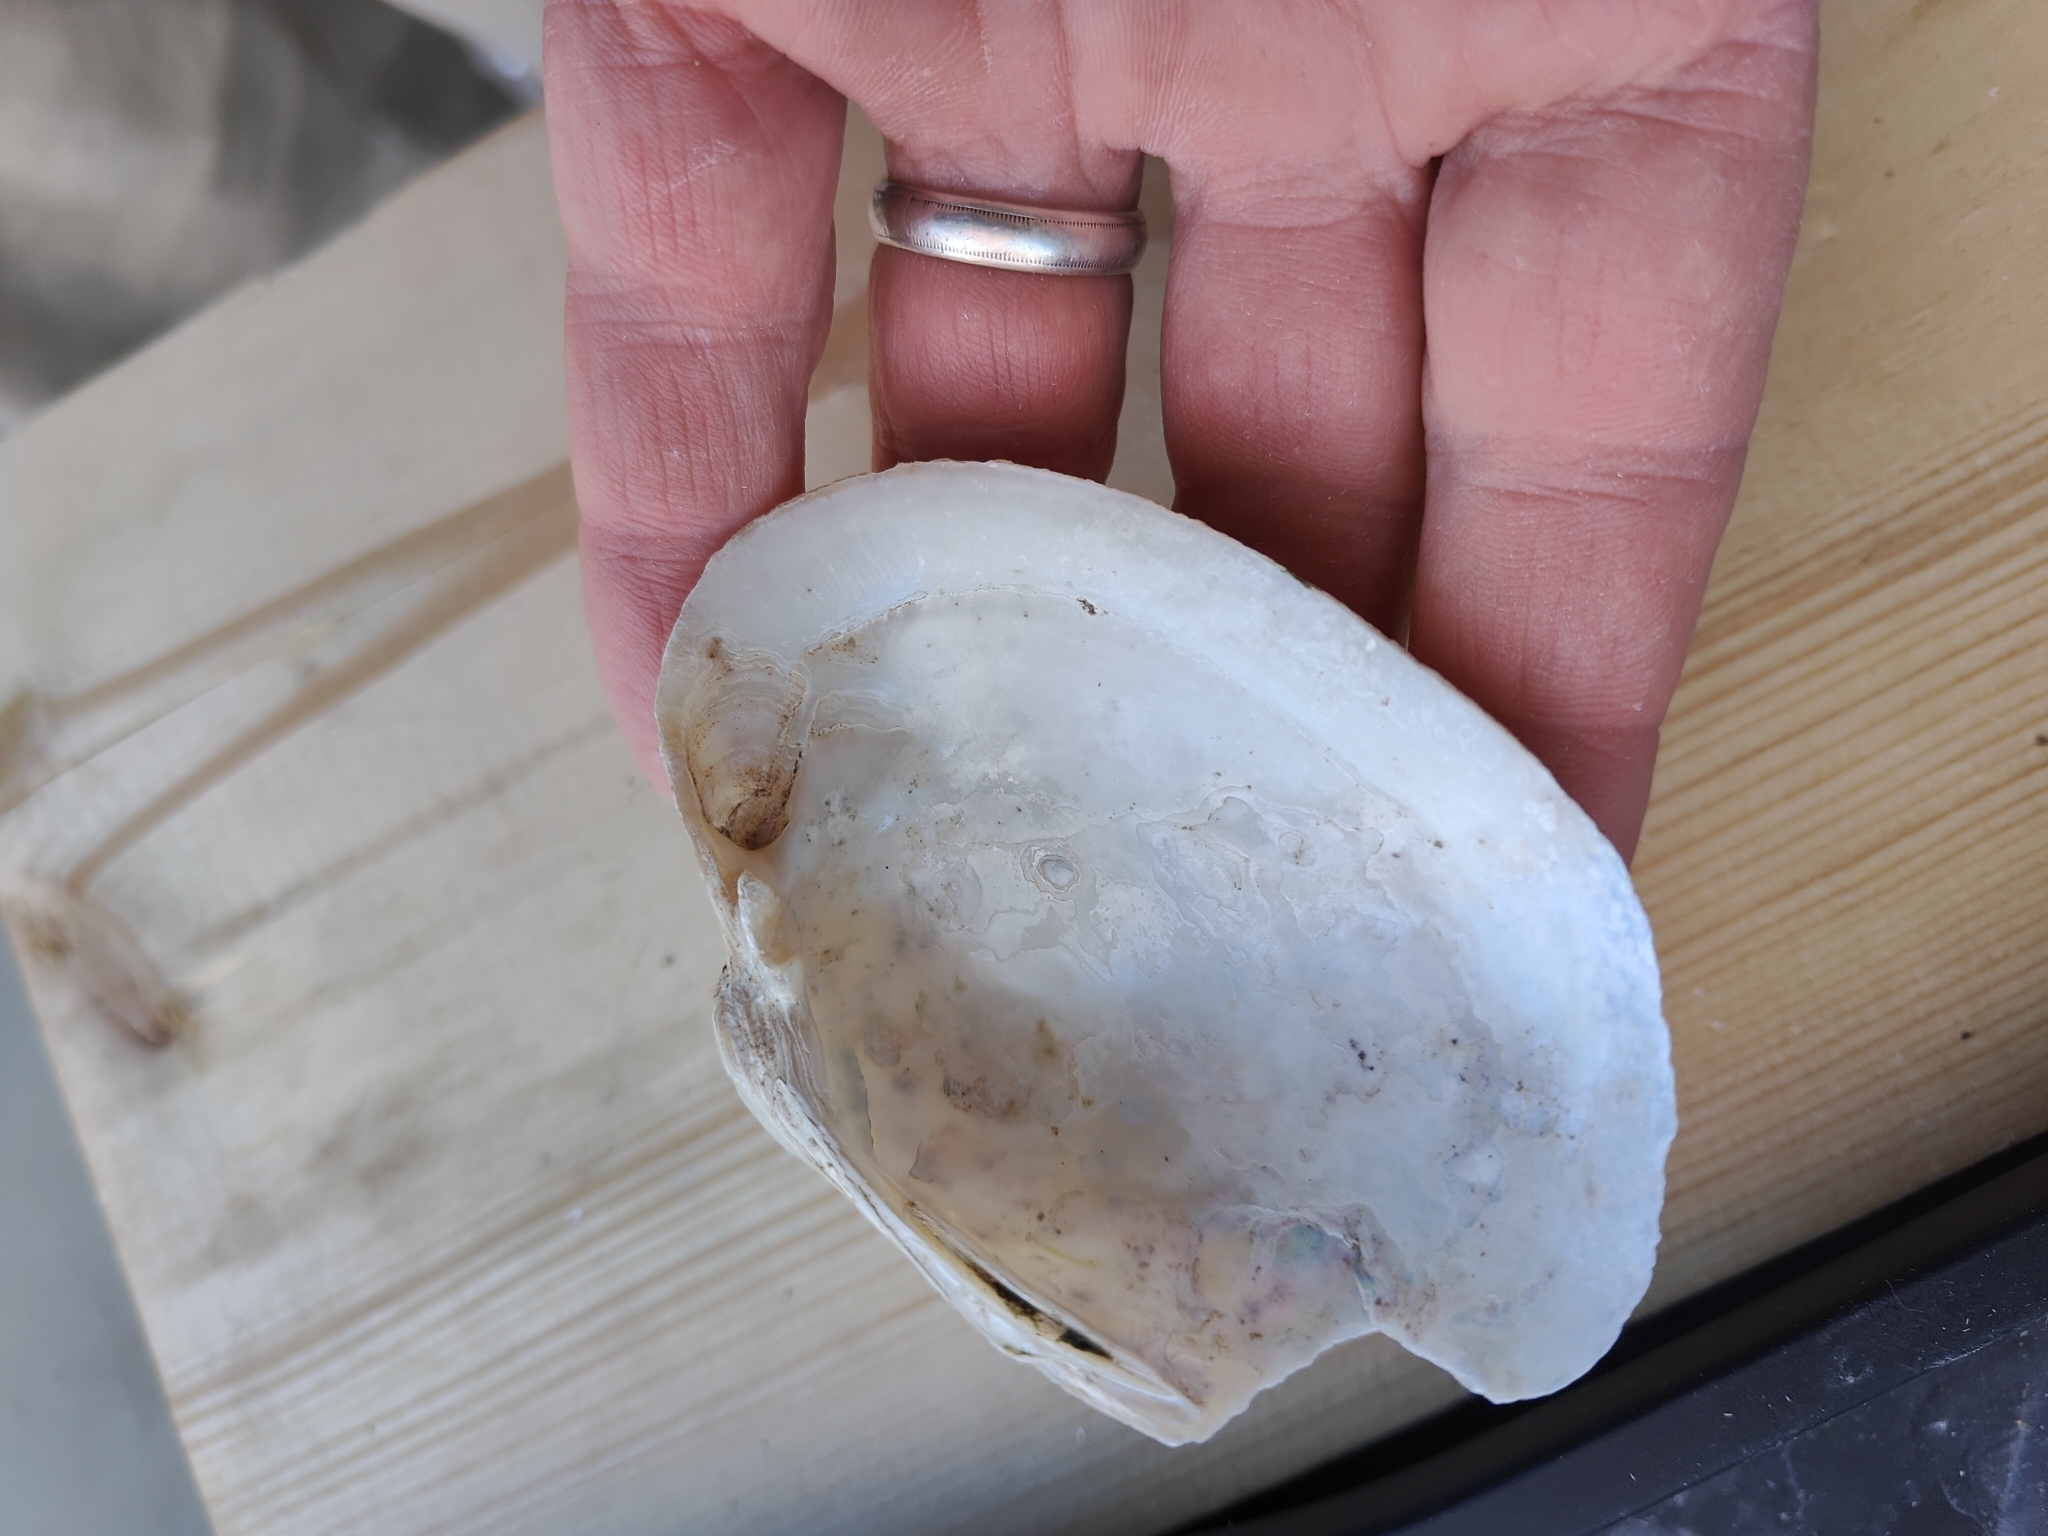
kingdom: Animalia
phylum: Mollusca
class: Bivalvia
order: Unionida
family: Unionidae
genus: Lampsilis
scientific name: Lampsilis cardium
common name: Plain pocketbook
